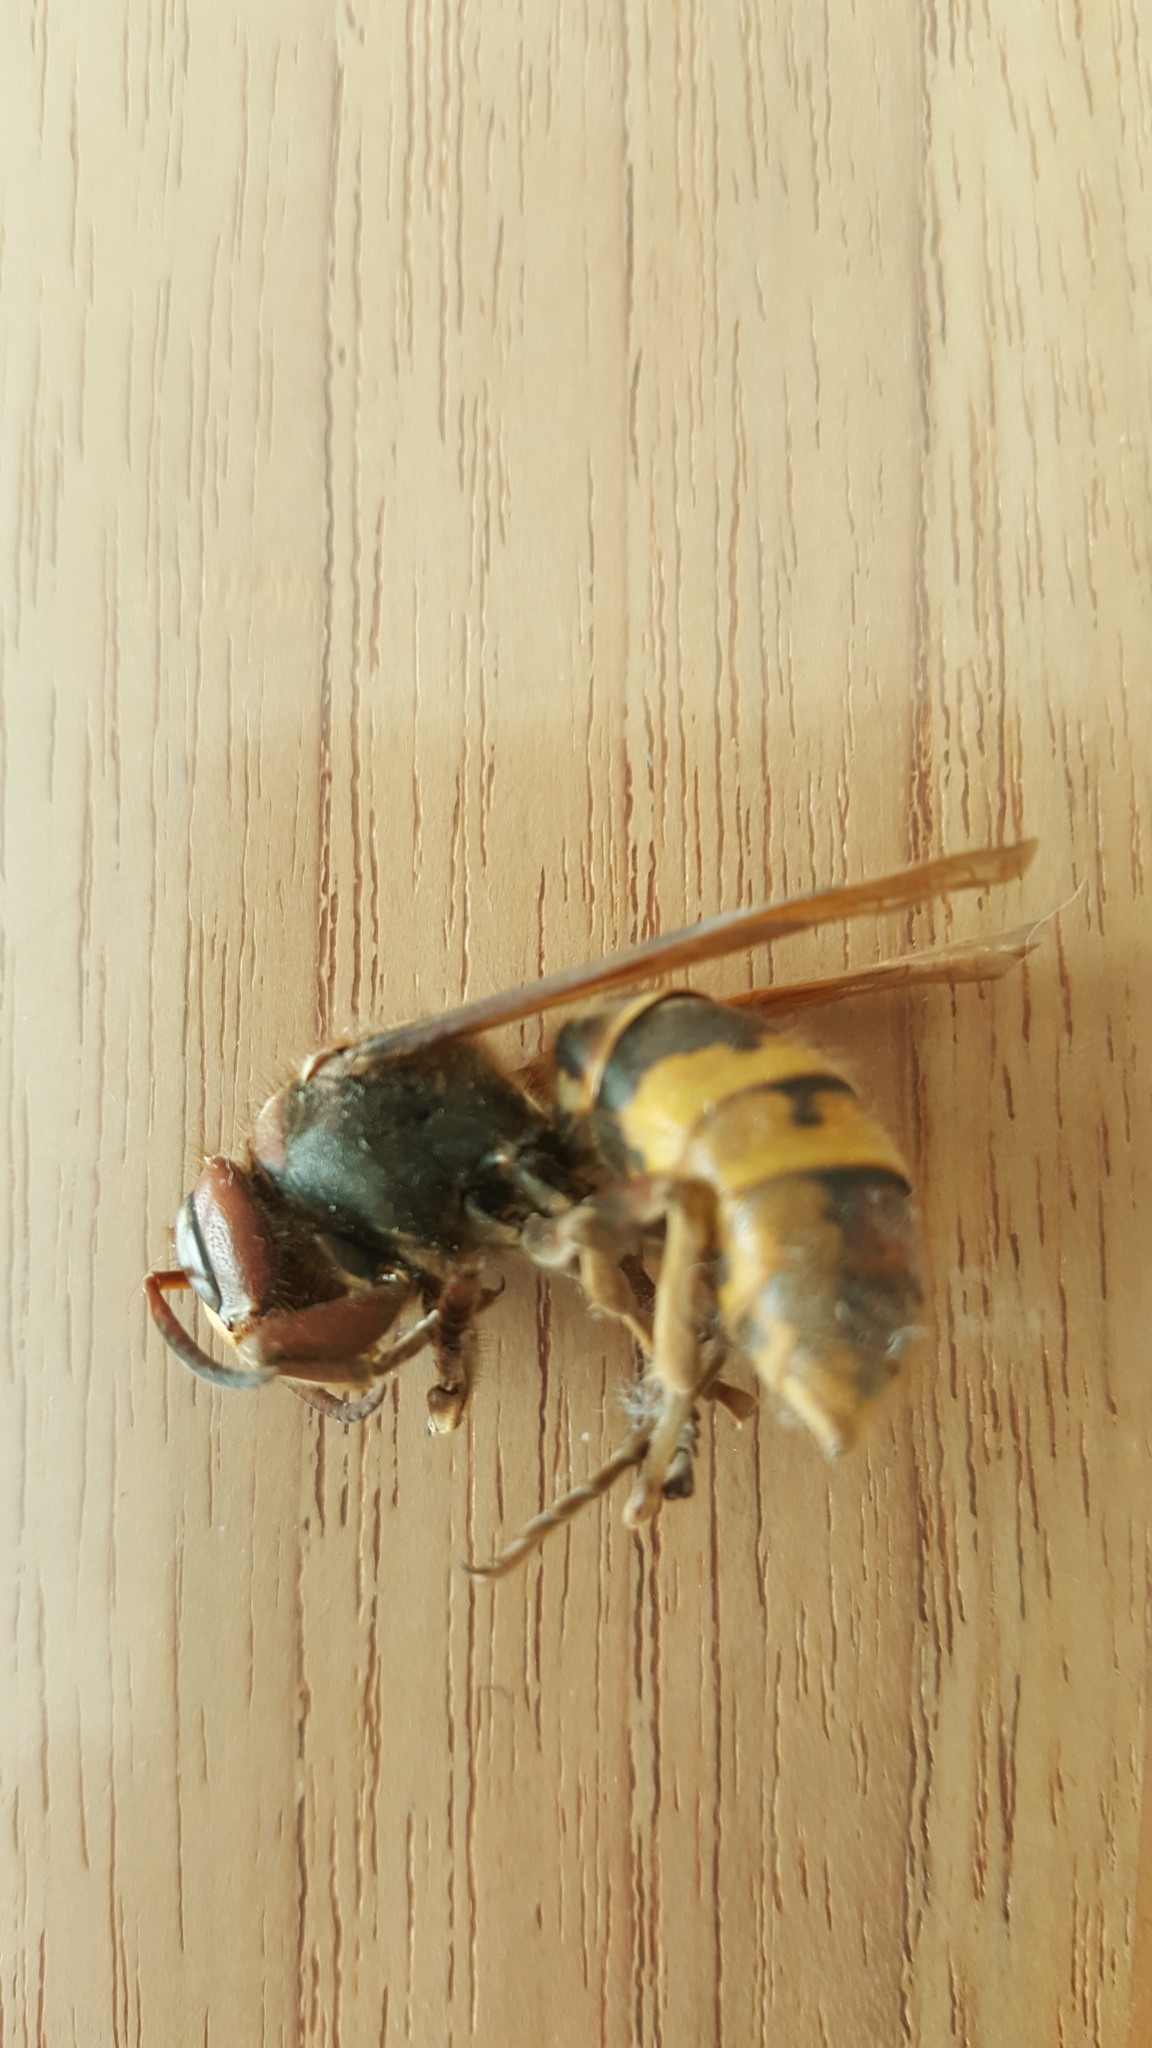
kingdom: Animalia
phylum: Arthropoda
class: Insecta
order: Hymenoptera
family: Vespidae
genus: Vespa
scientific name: Vespa crabro
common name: Hornet
